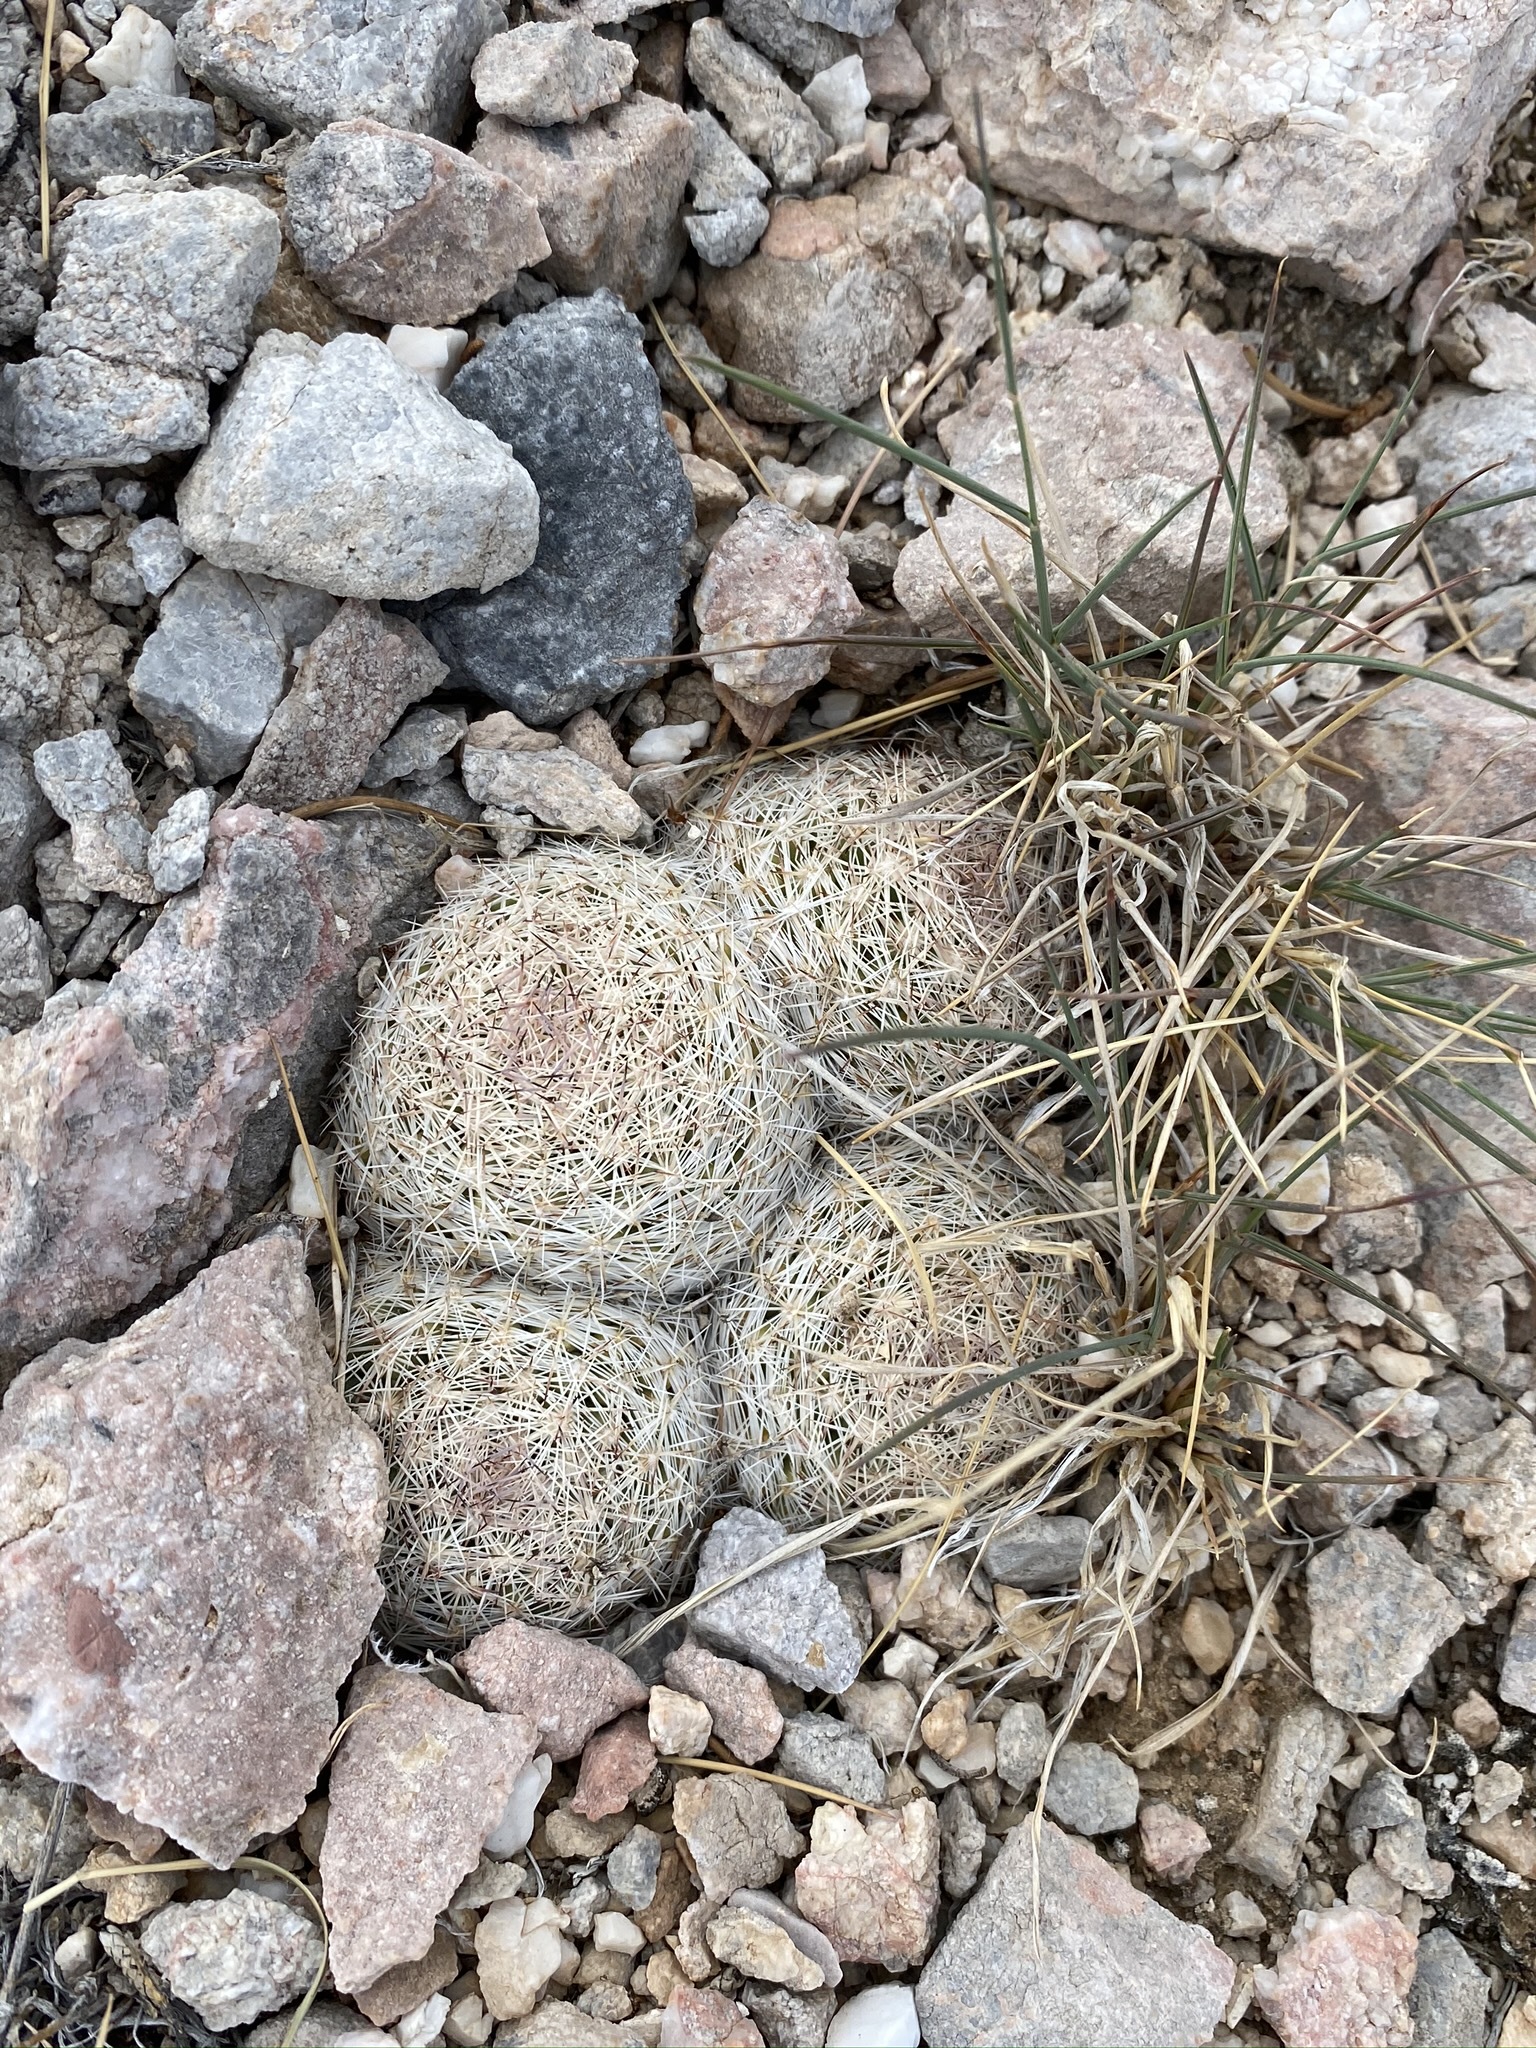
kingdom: Plantae
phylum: Tracheophyta
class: Magnoliopsida
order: Caryophyllales
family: Cactaceae
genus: Pelecyphora
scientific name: Pelecyphora vivipara
